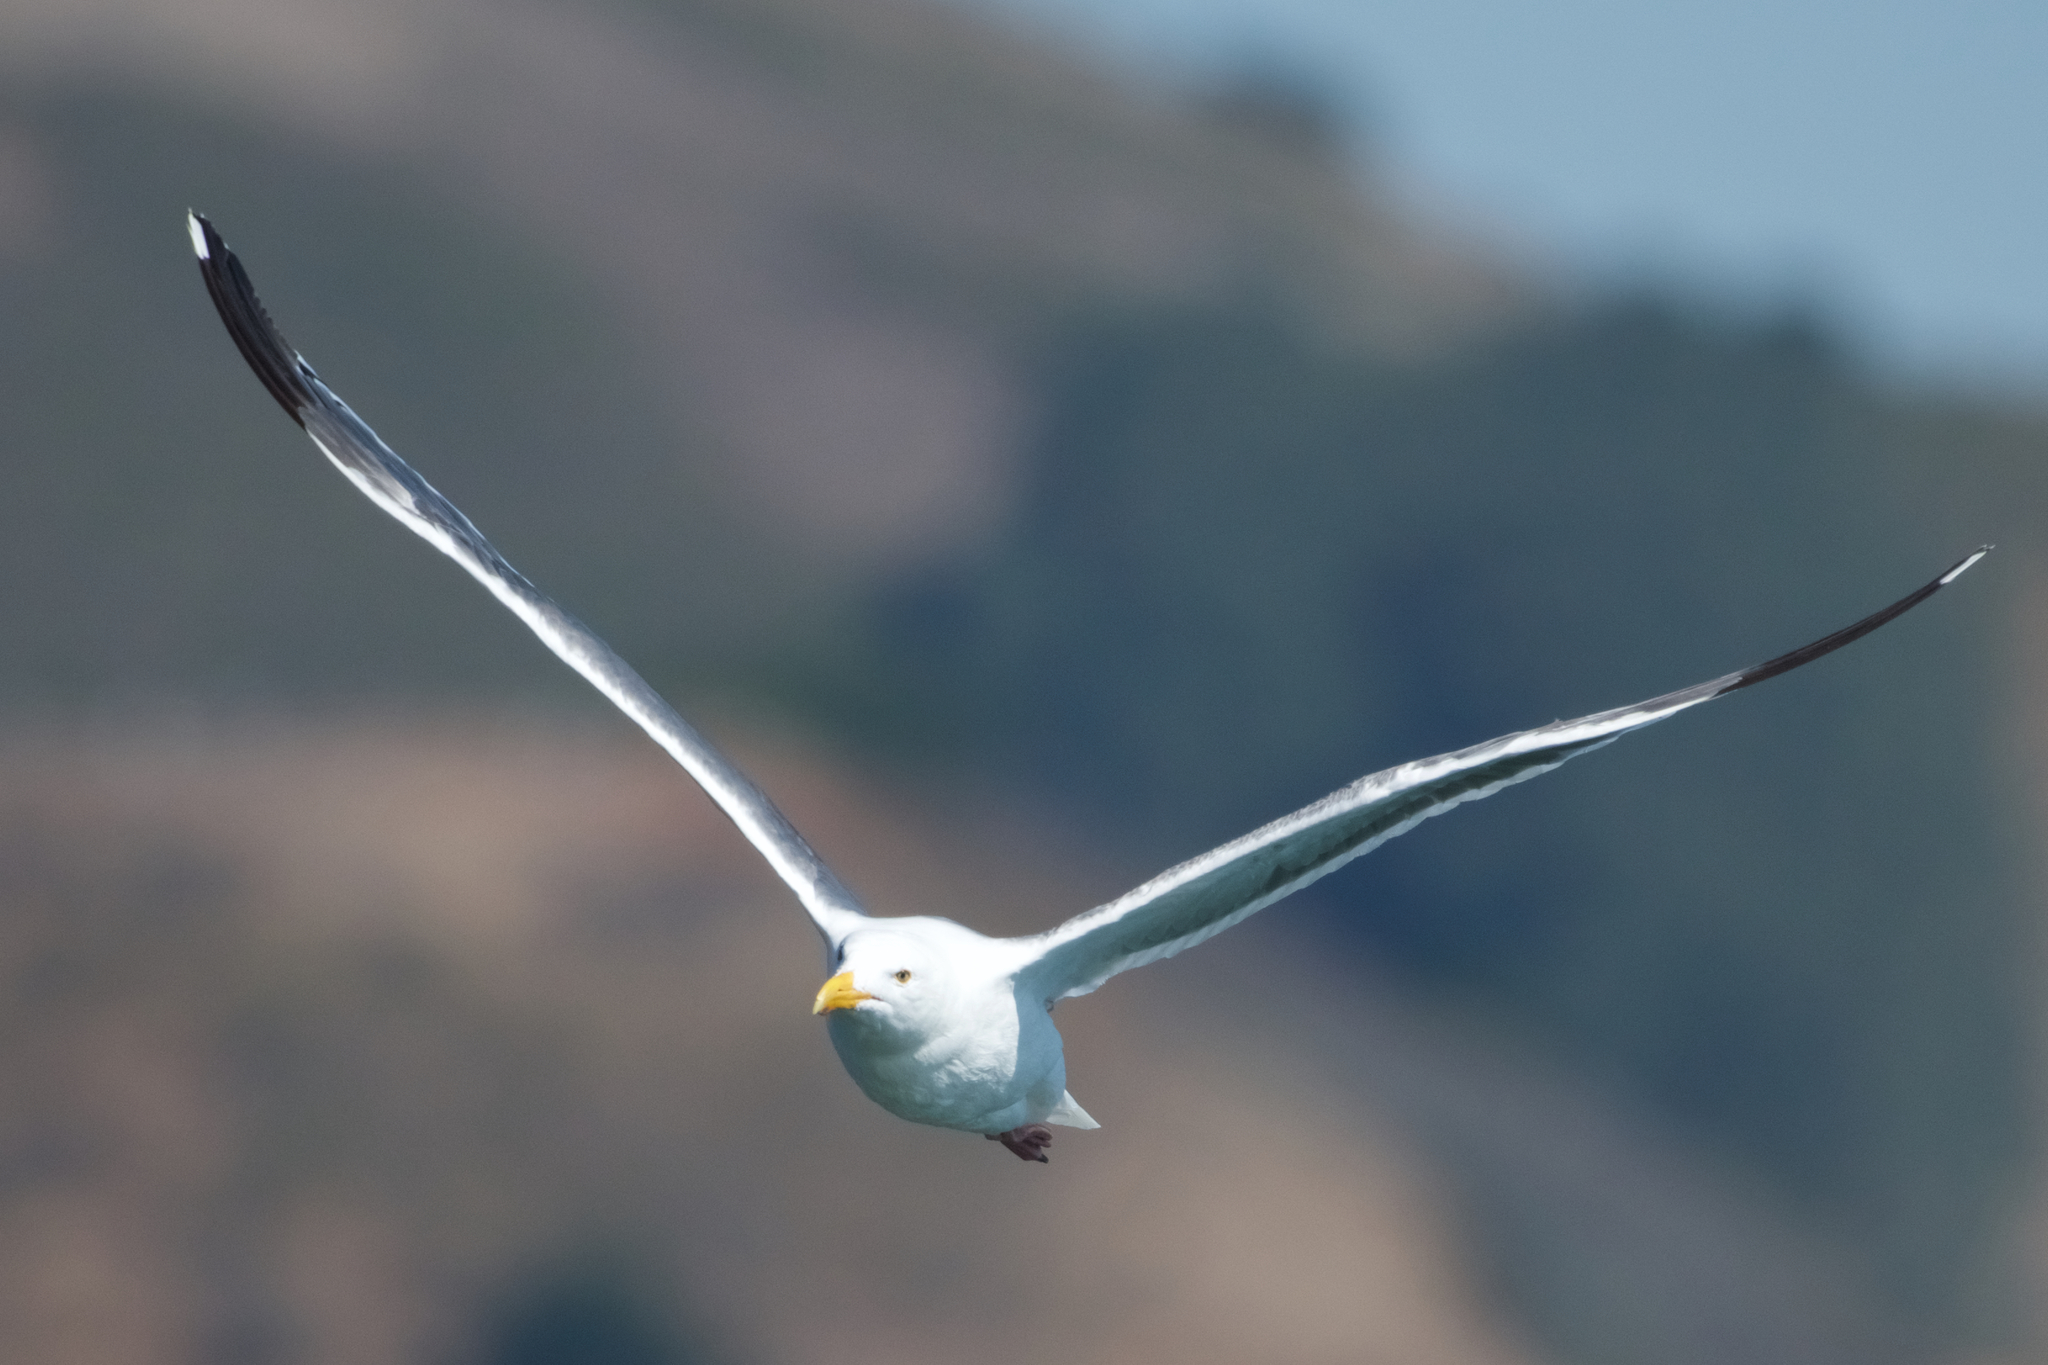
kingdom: Animalia
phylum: Chordata
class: Aves
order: Charadriiformes
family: Laridae
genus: Larus
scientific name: Larus occidentalis
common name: Western gull
